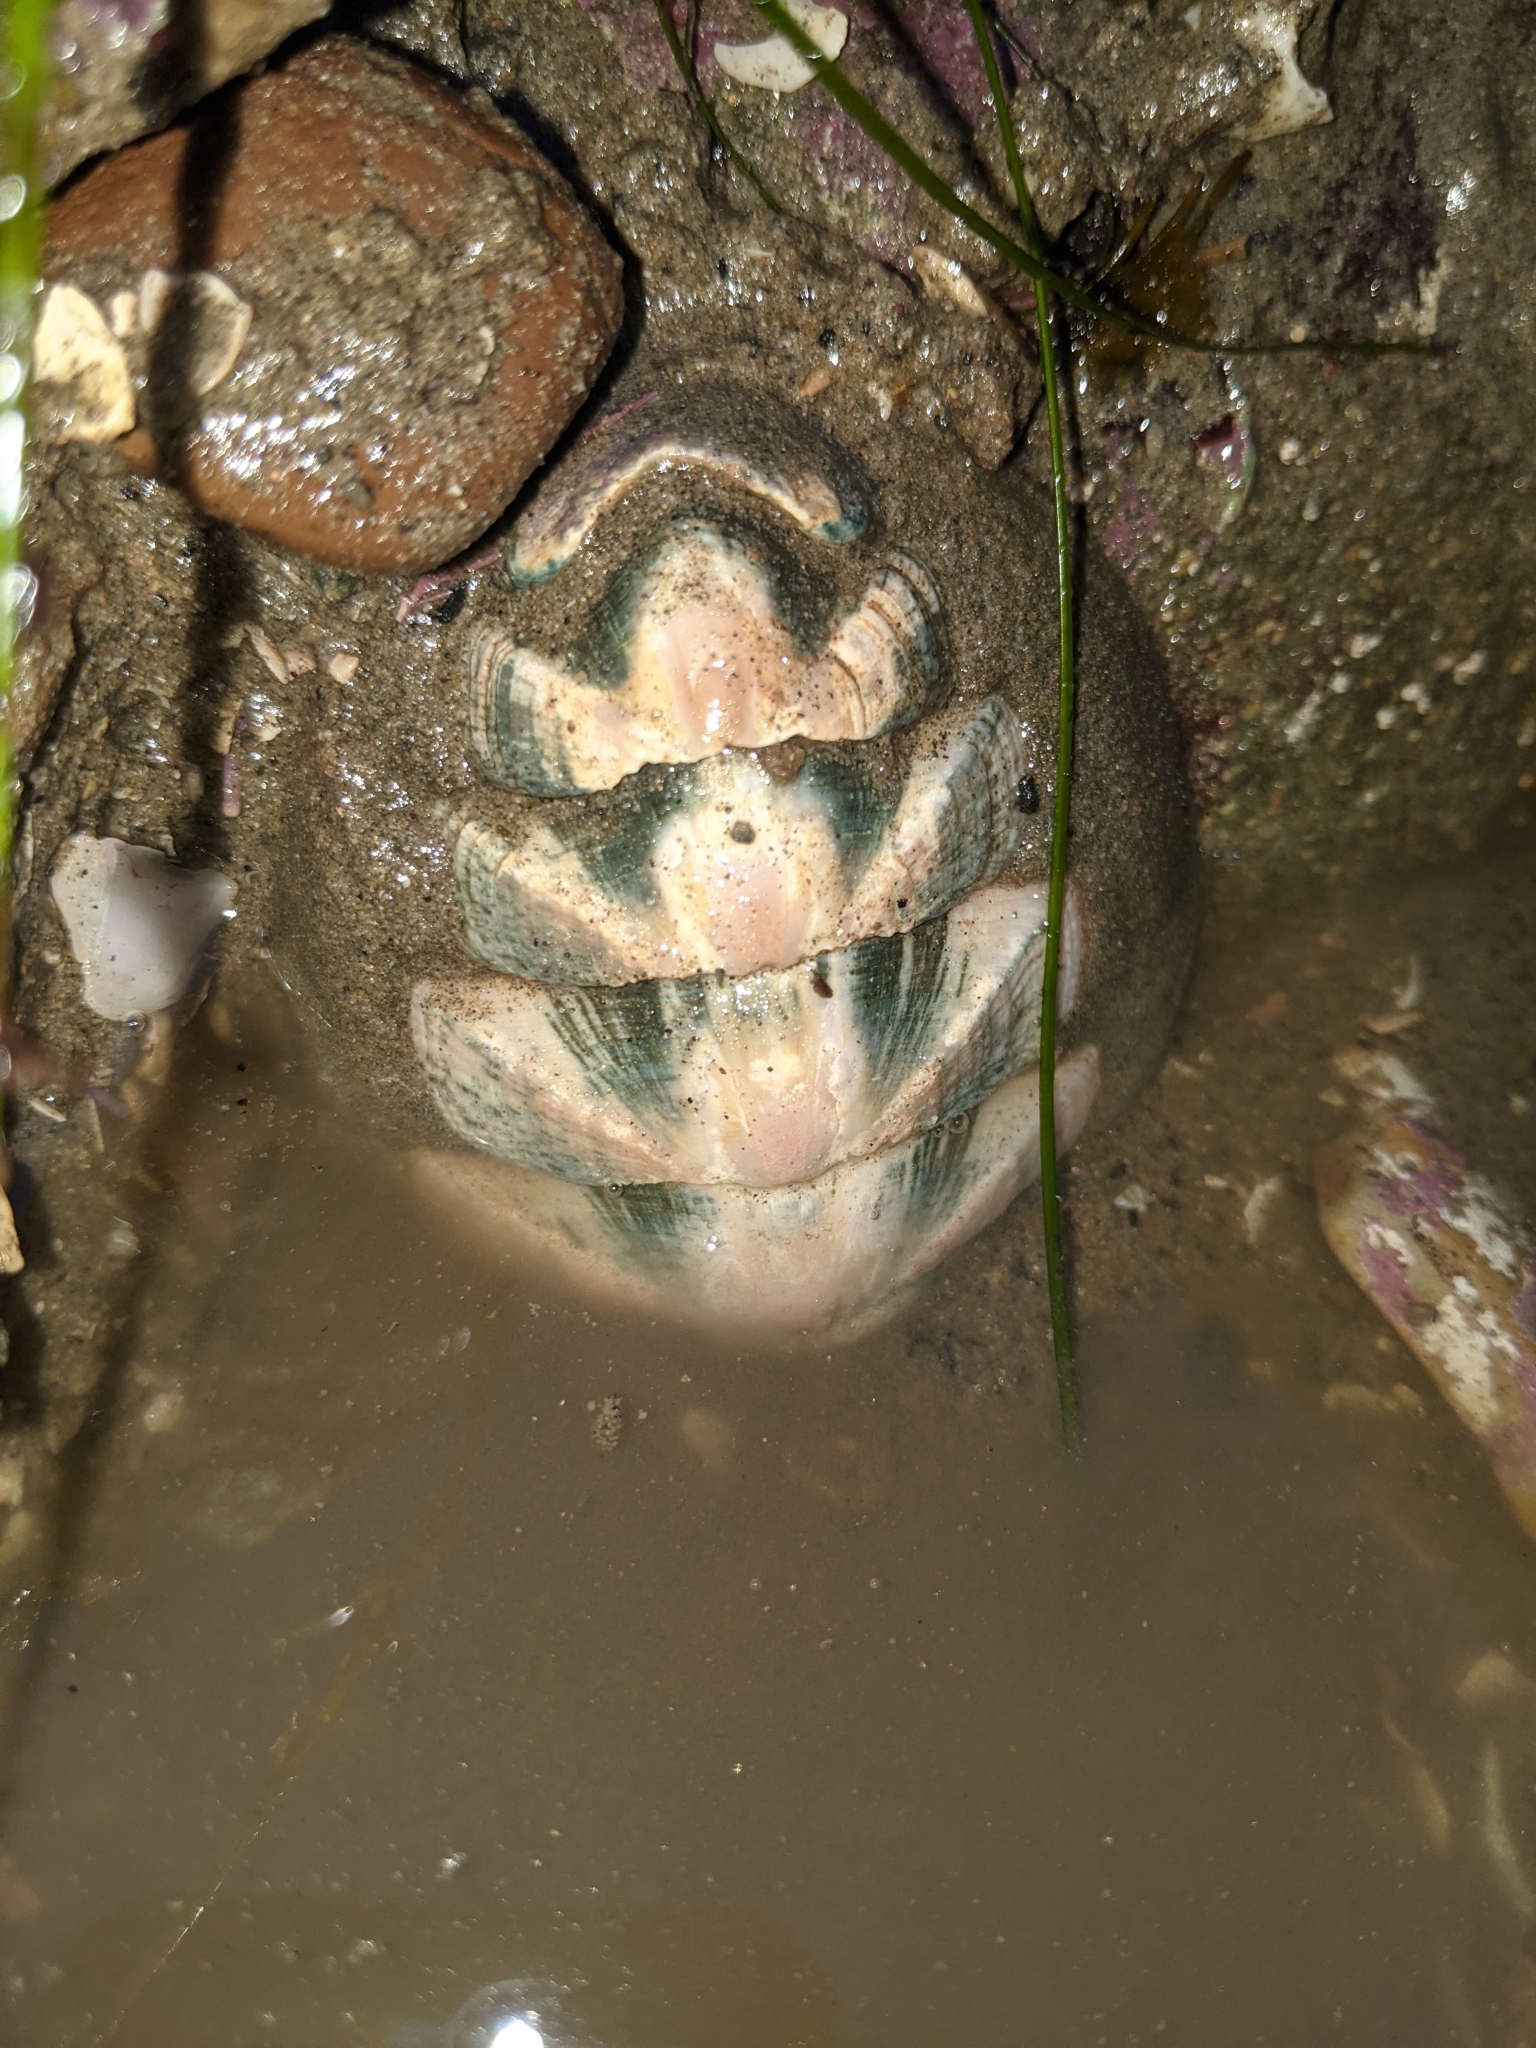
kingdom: Animalia
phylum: Mollusca
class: Polyplacophora
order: Chitonida
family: Ischnochitonidae
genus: Stenoplax
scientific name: Stenoplax conspicua
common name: Conspicuous chiton
